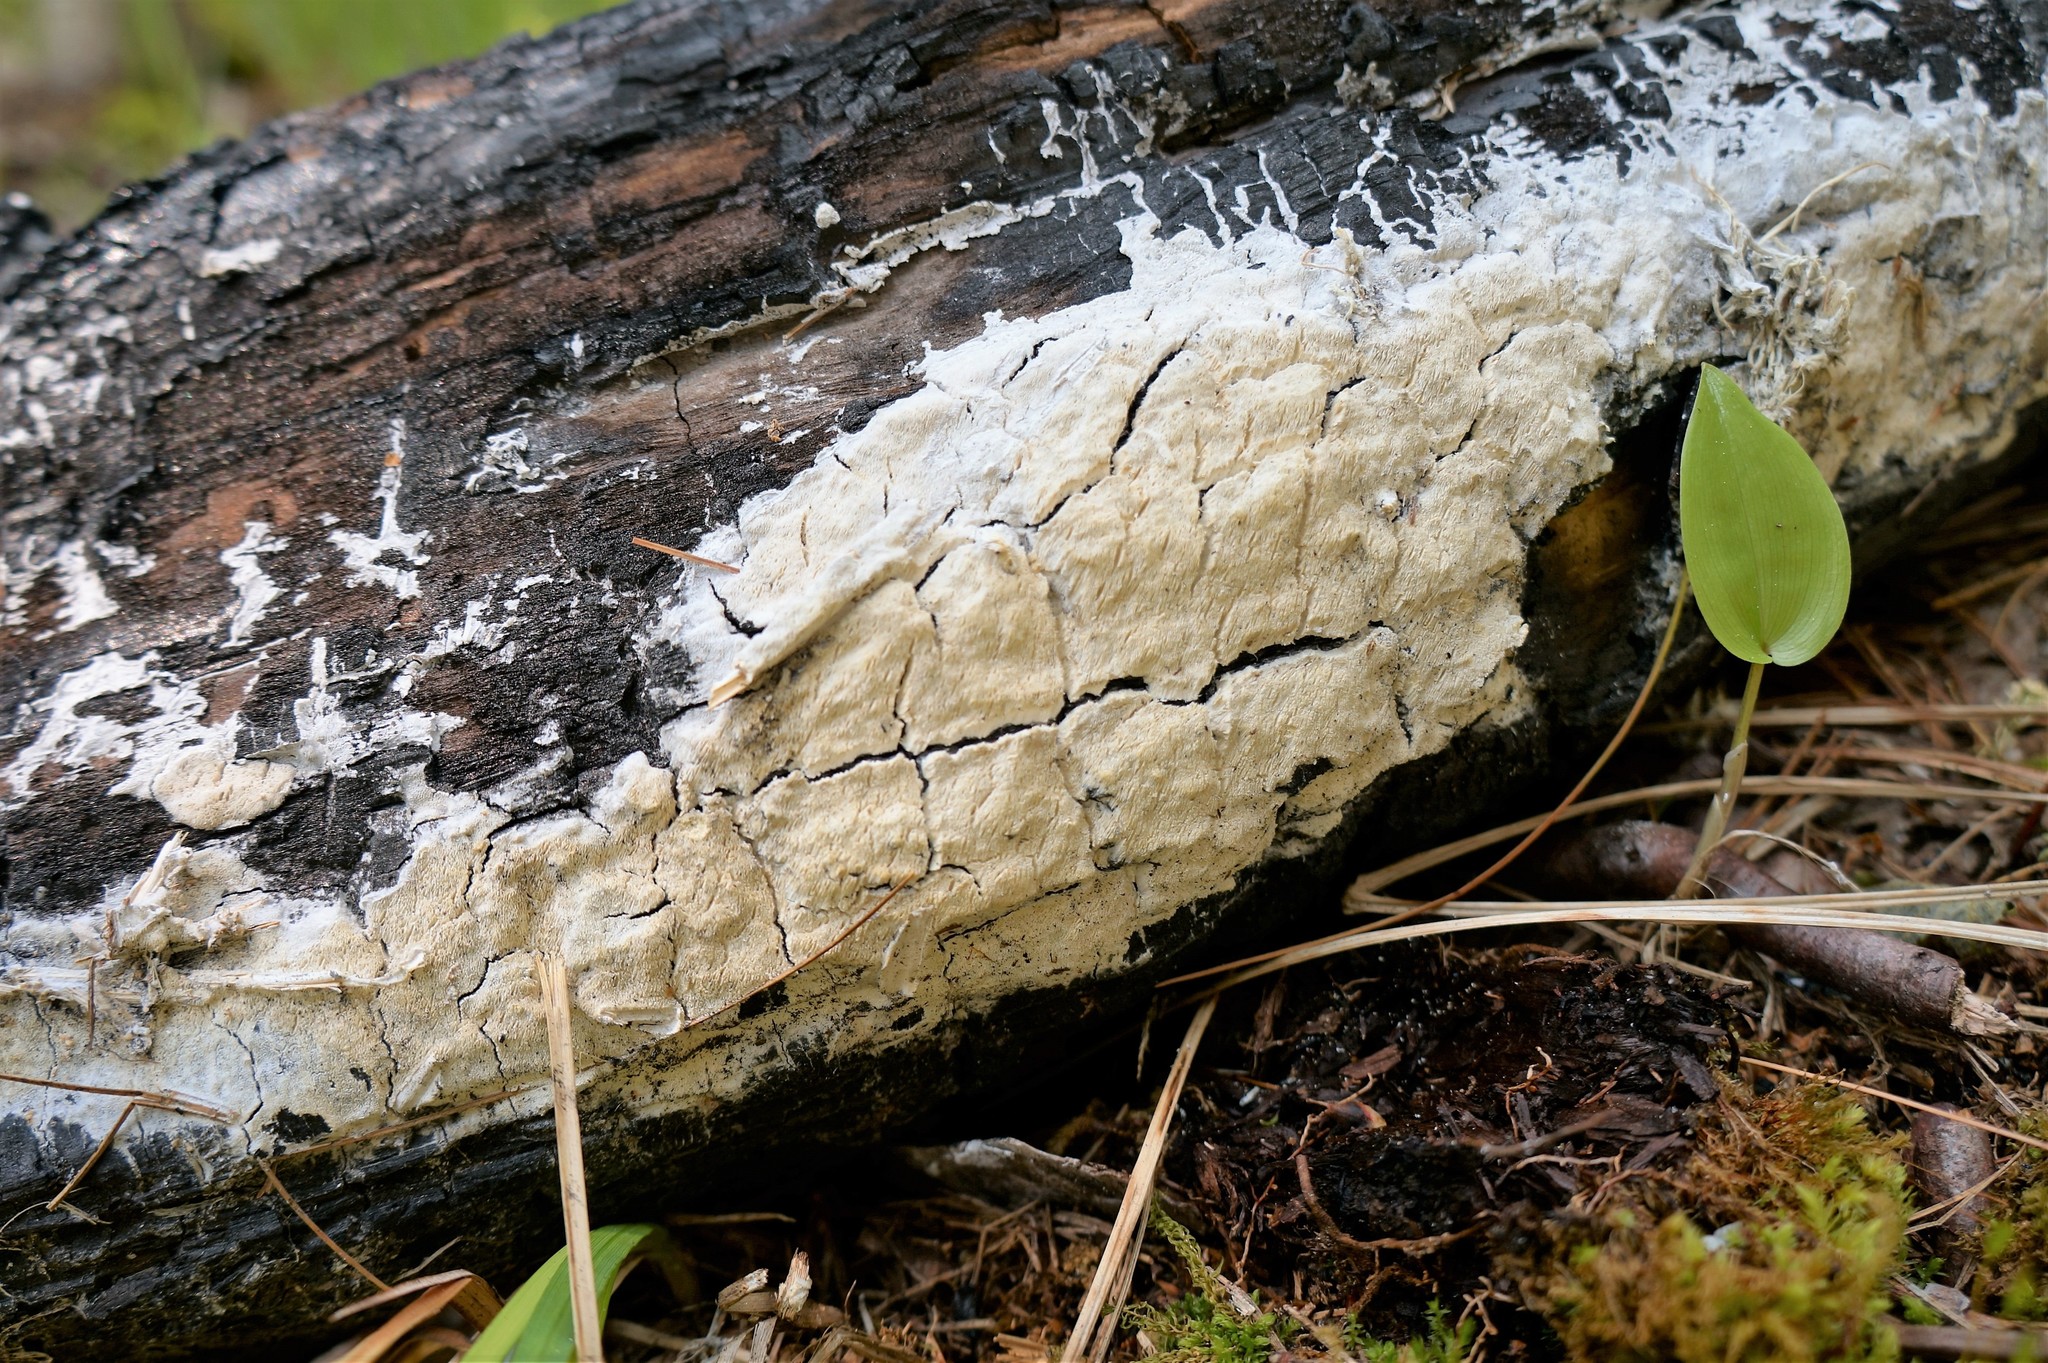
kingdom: Fungi
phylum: Basidiomycota
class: Agaricomycetes
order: Polyporales
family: Fomitopsidaceae
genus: Daedalea
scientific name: Daedalea xantha
